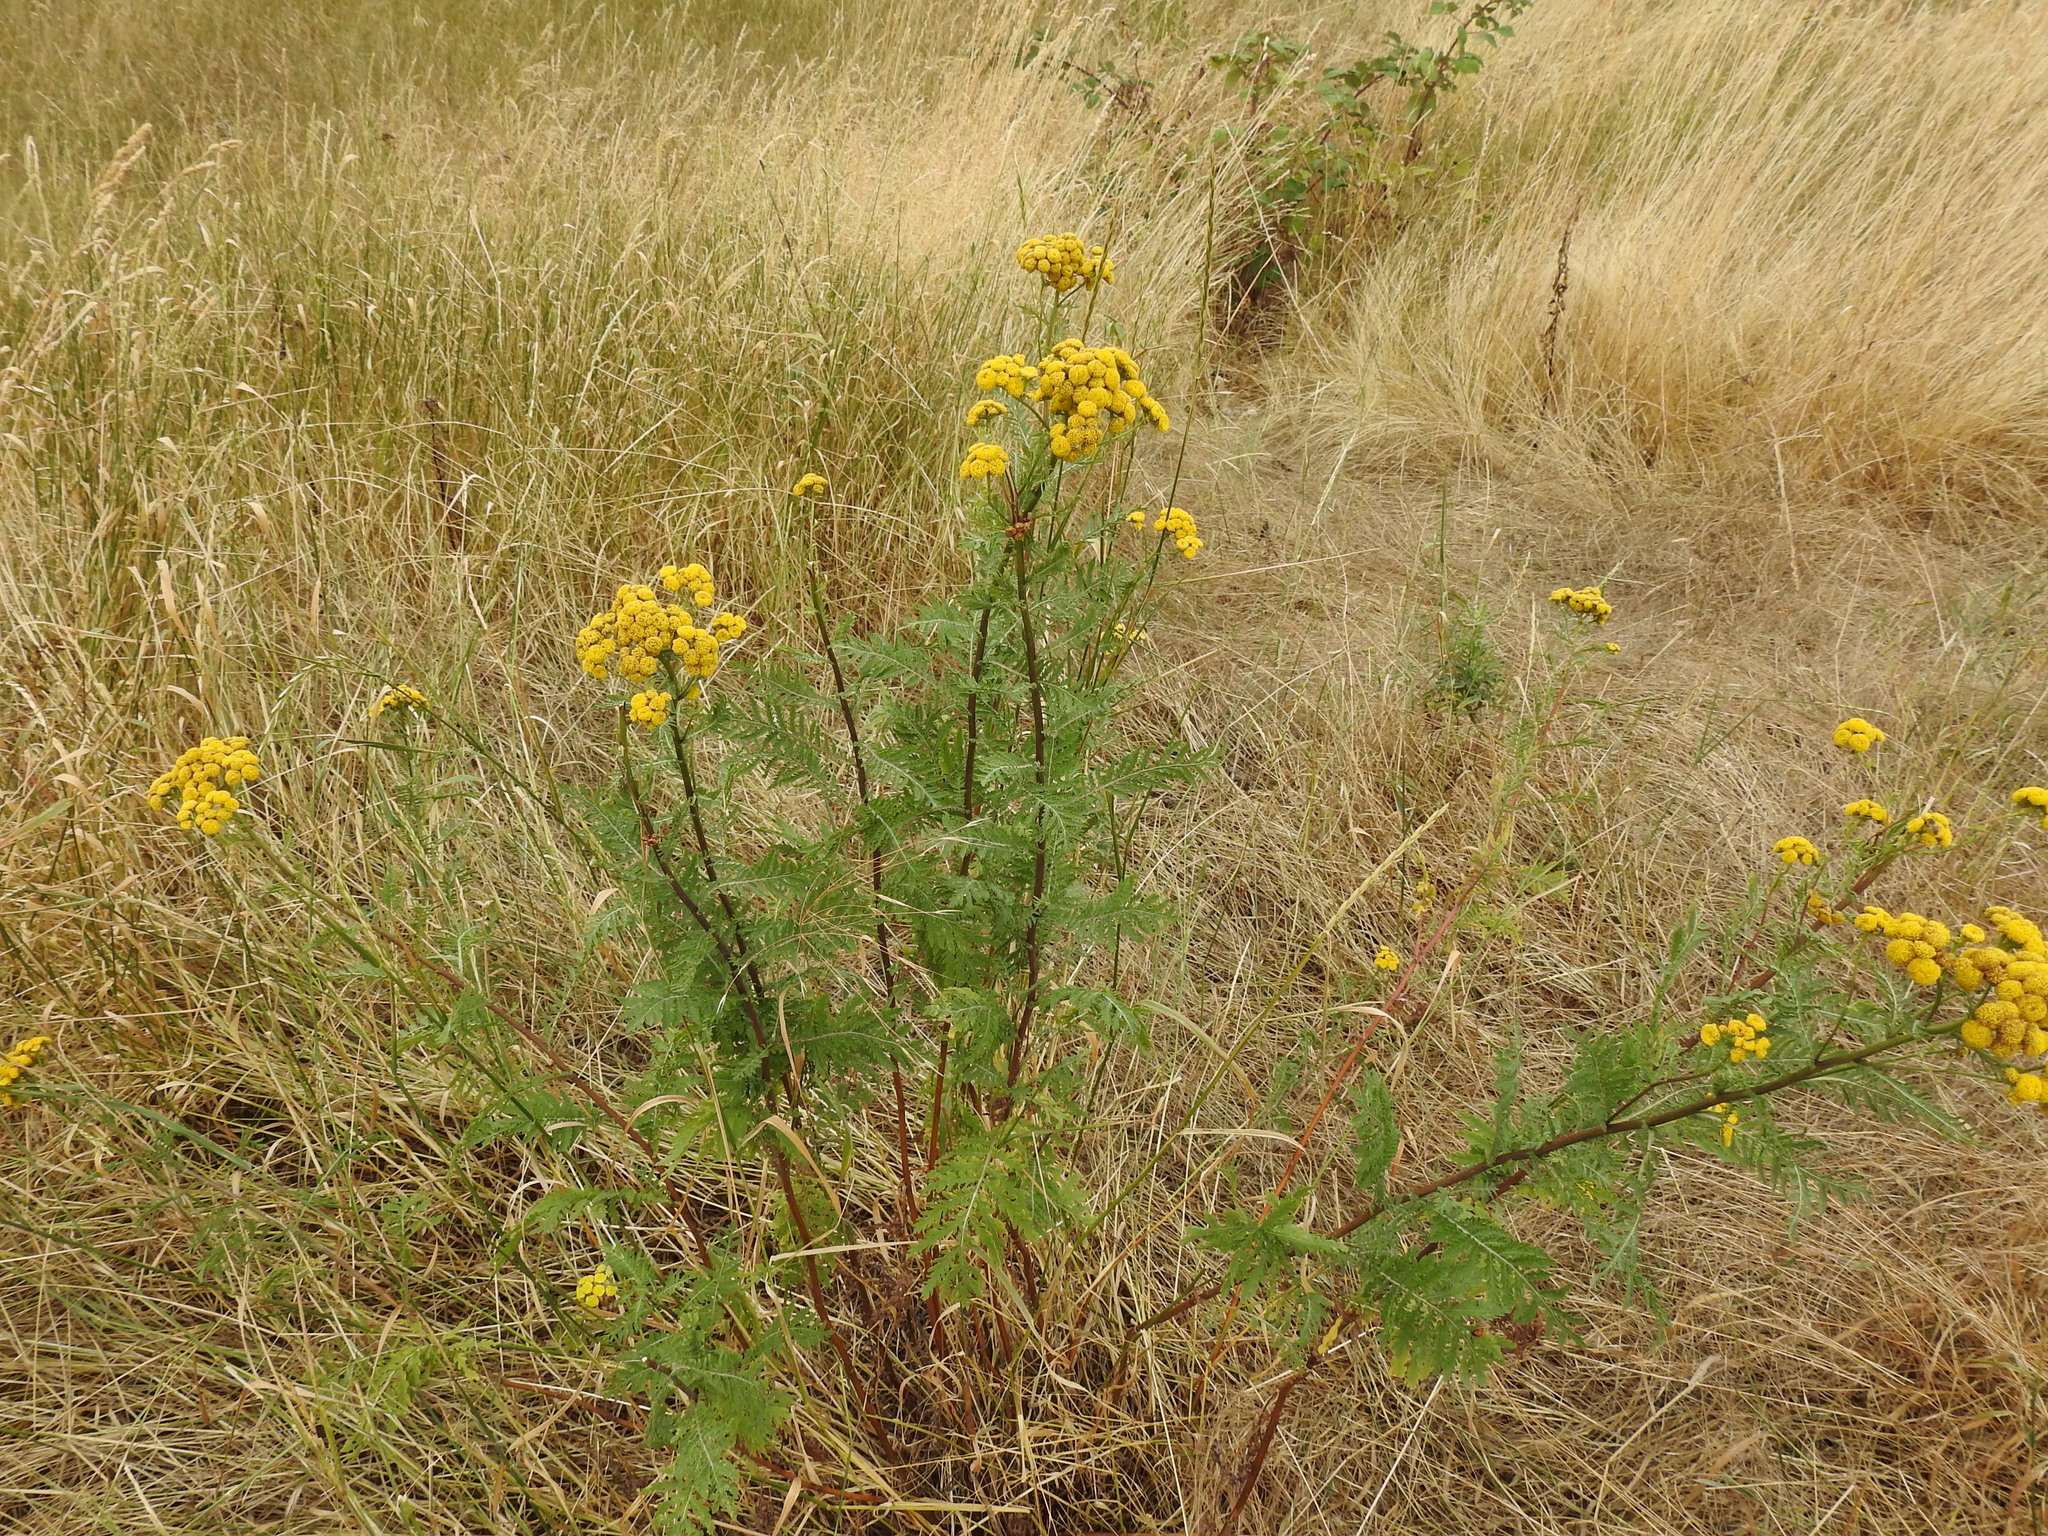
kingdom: Plantae
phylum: Tracheophyta
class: Magnoliopsida
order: Asterales
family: Asteraceae
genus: Tanacetum
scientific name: Tanacetum vulgare
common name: Common tansy
